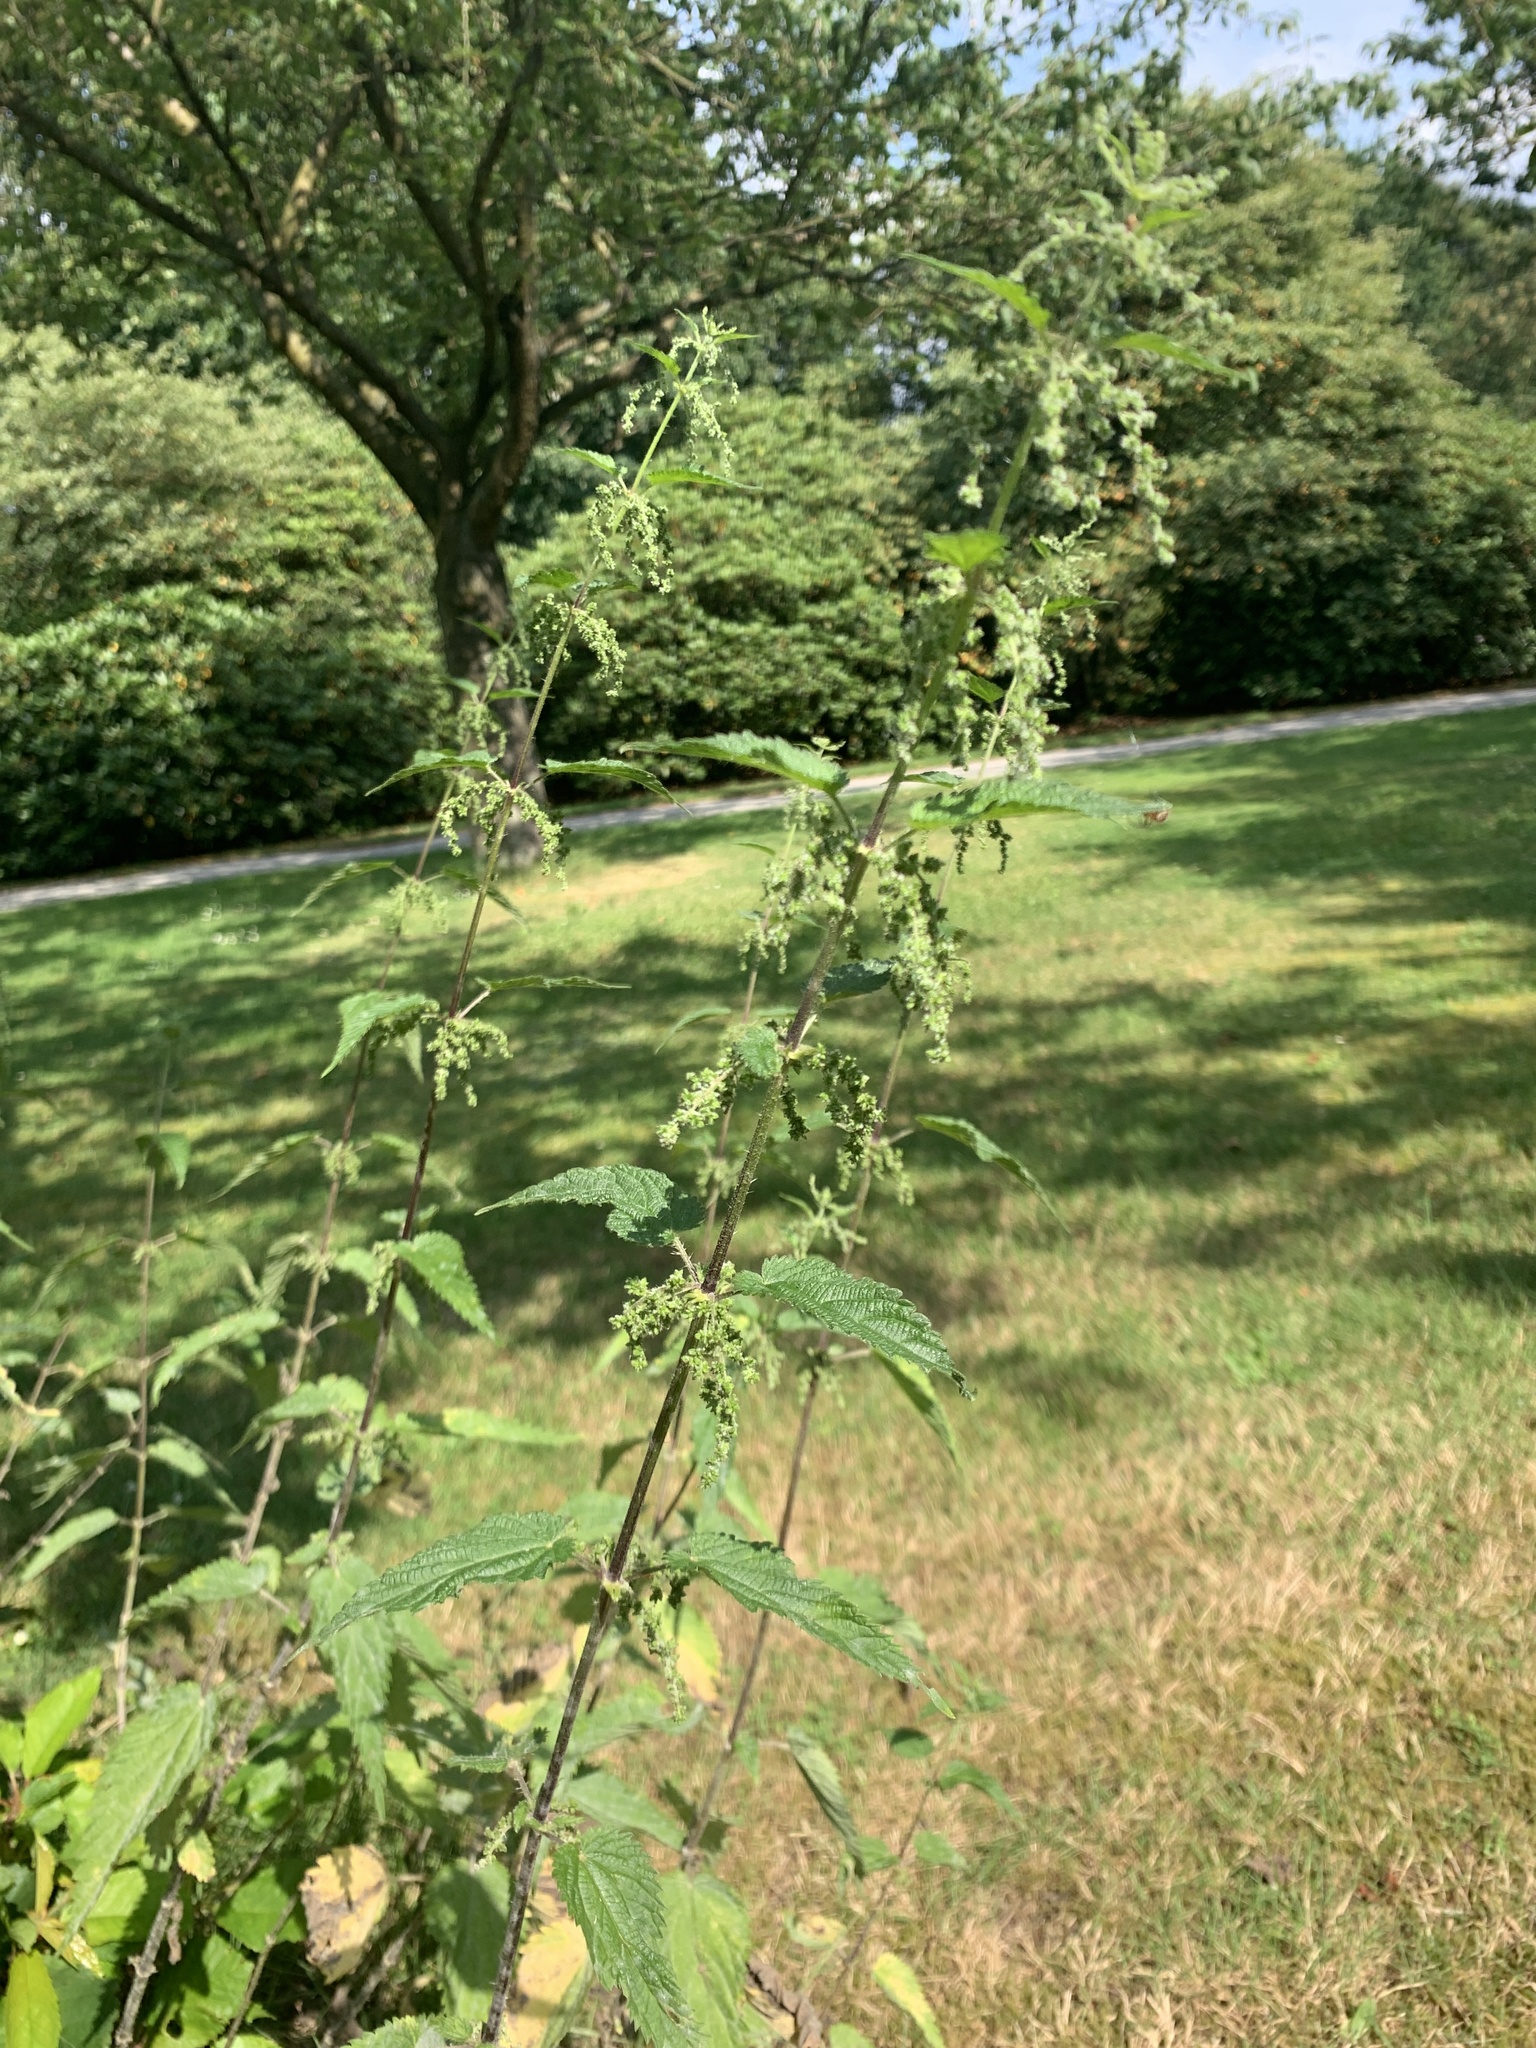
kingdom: Plantae
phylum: Tracheophyta
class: Magnoliopsida
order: Rosales
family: Urticaceae
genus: Urtica
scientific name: Urtica dioica
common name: Common nettle
